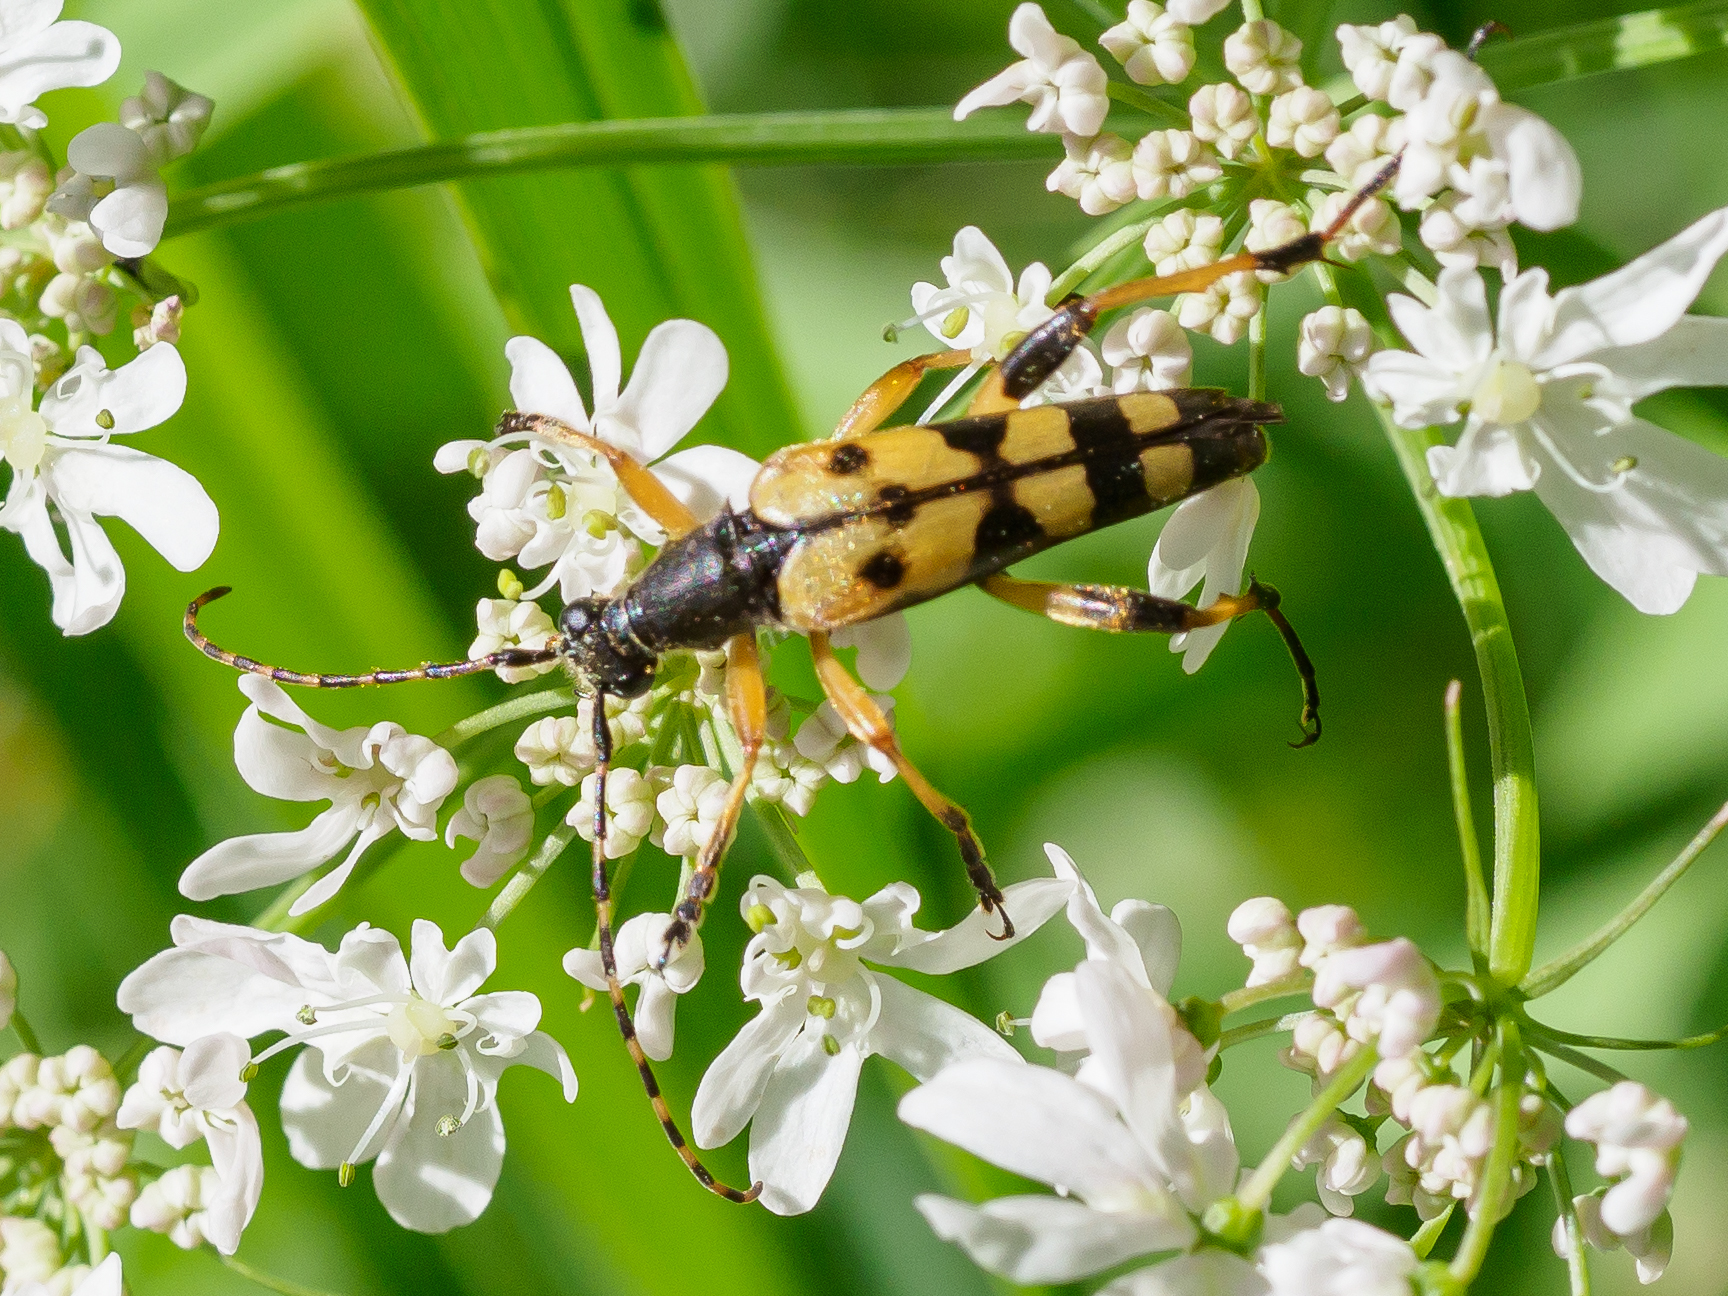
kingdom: Animalia
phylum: Arthropoda
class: Insecta
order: Coleoptera
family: Cerambycidae
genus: Rutpela
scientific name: Rutpela maculata
